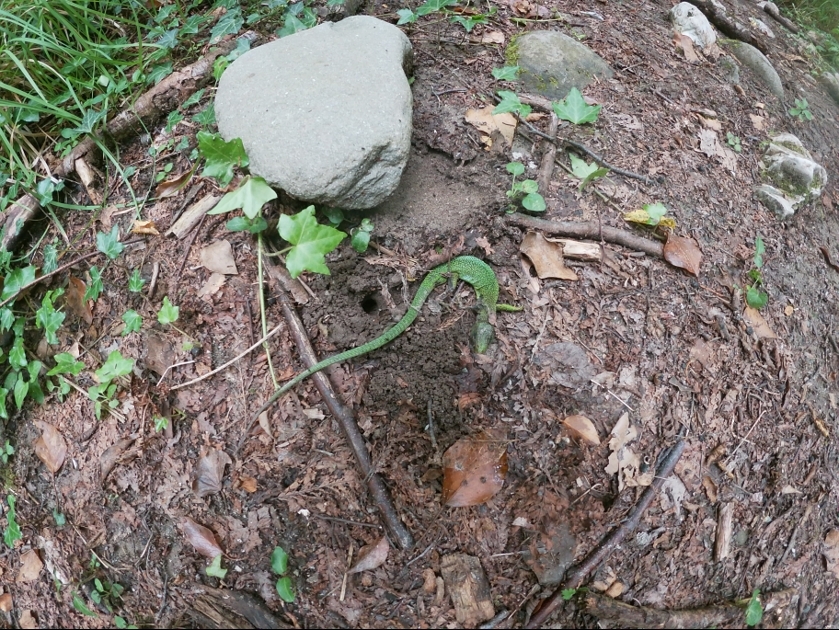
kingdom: Animalia
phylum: Chordata
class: Squamata
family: Lacertidae
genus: Lacerta
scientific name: Lacerta bilineata
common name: Western green lizard
